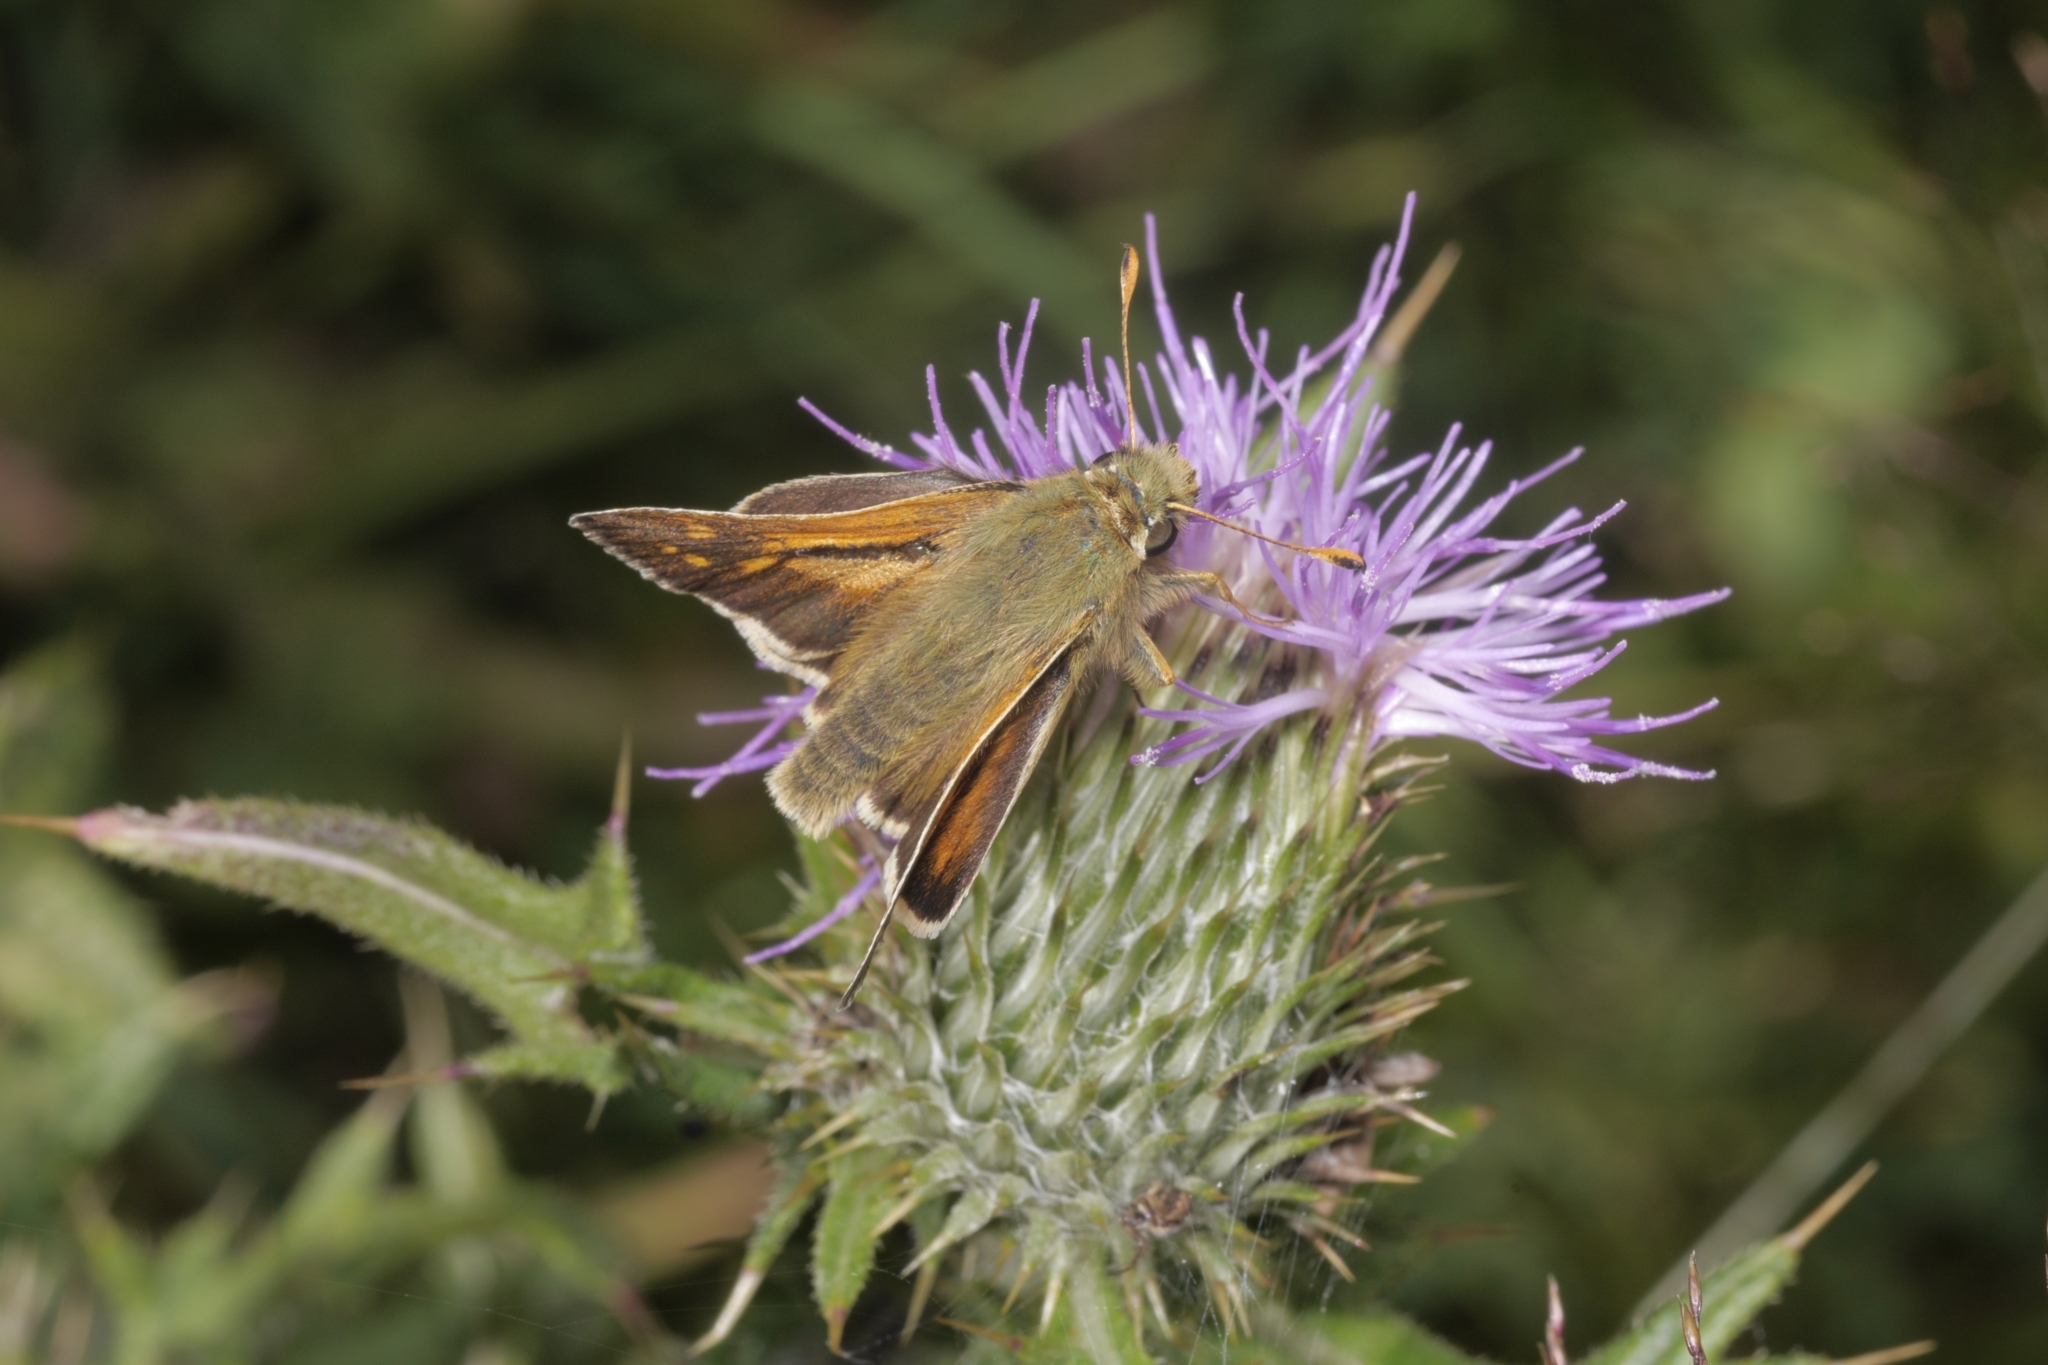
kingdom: Animalia
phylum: Arthropoda
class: Insecta
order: Lepidoptera
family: Hesperiidae
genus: Hesperia
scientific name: Hesperia comma
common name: Common branded skipper
